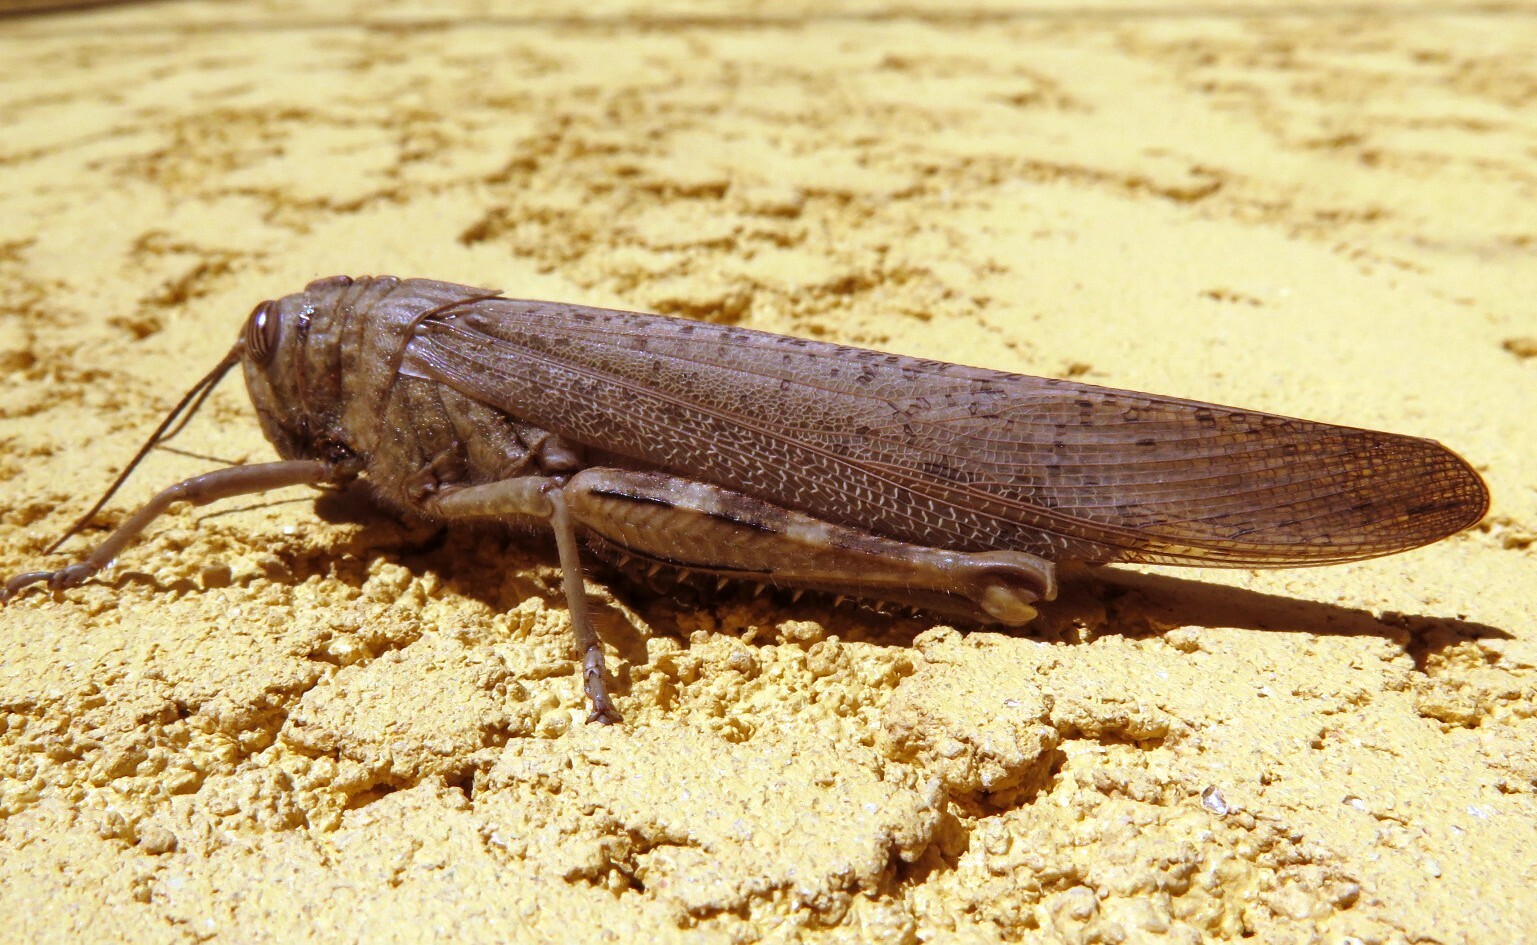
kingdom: Animalia
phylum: Arthropoda
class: Insecta
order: Orthoptera
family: Acrididae
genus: Anacridium
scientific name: Anacridium aegyptium
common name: Egyptian grasshopper
